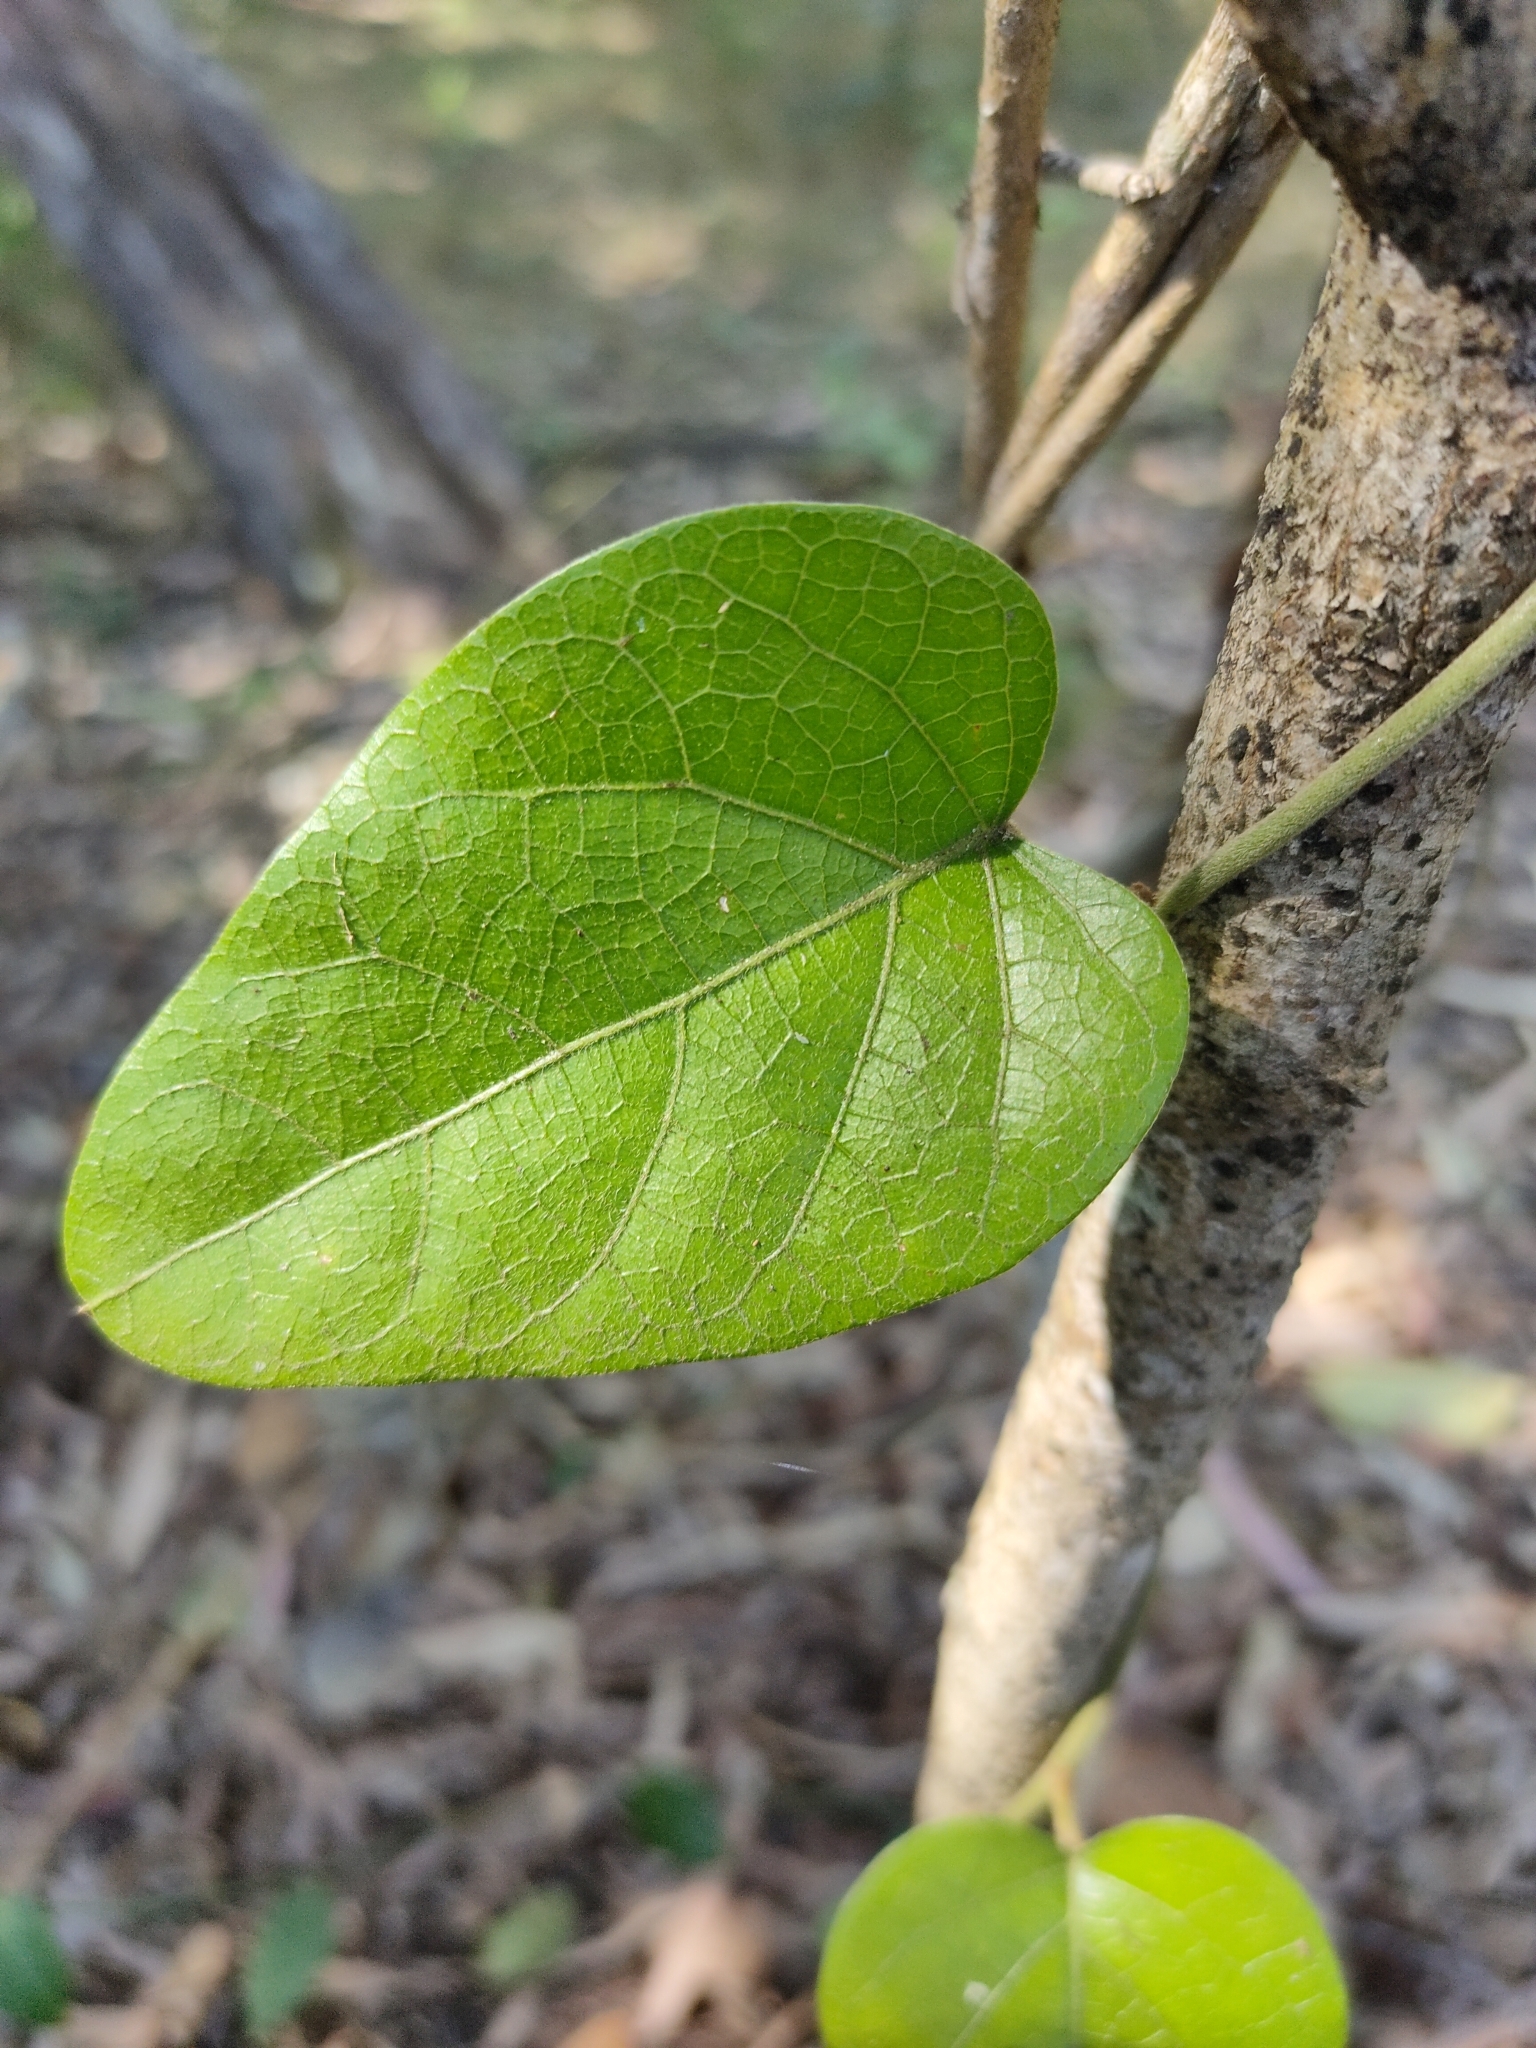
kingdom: Plantae
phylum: Tracheophyta
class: Magnoliopsida
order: Ranunculales
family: Menispermaceae
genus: Pleogyne
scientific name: Pleogyne australis
